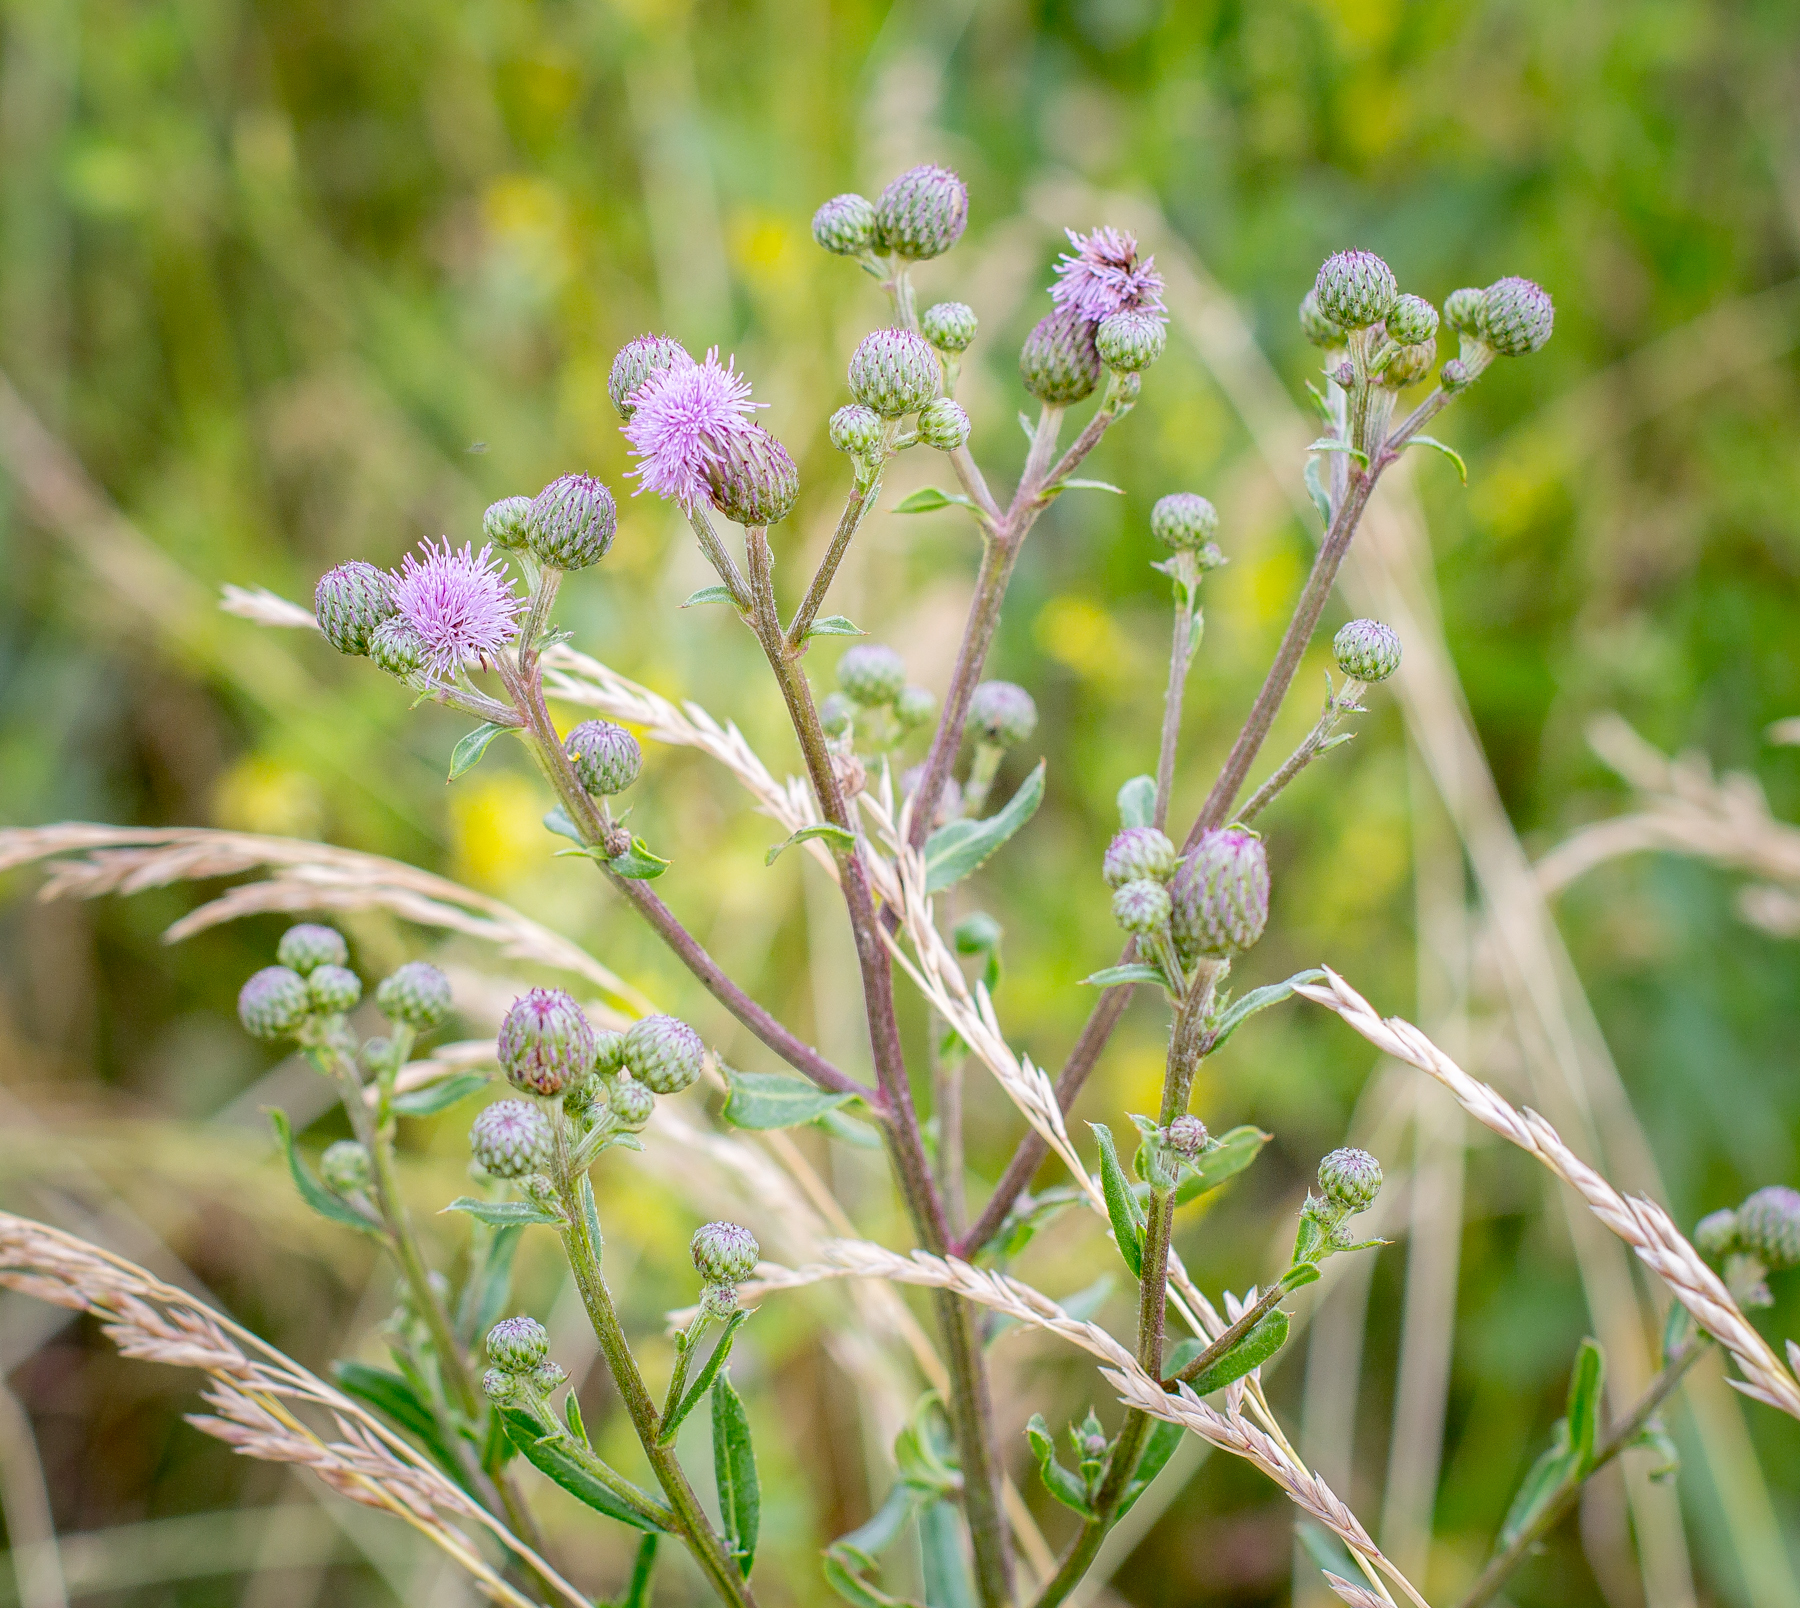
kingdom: Plantae
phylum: Tracheophyta
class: Magnoliopsida
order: Asterales
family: Asteraceae
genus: Cirsium
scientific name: Cirsium arvense
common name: Creeping thistle
